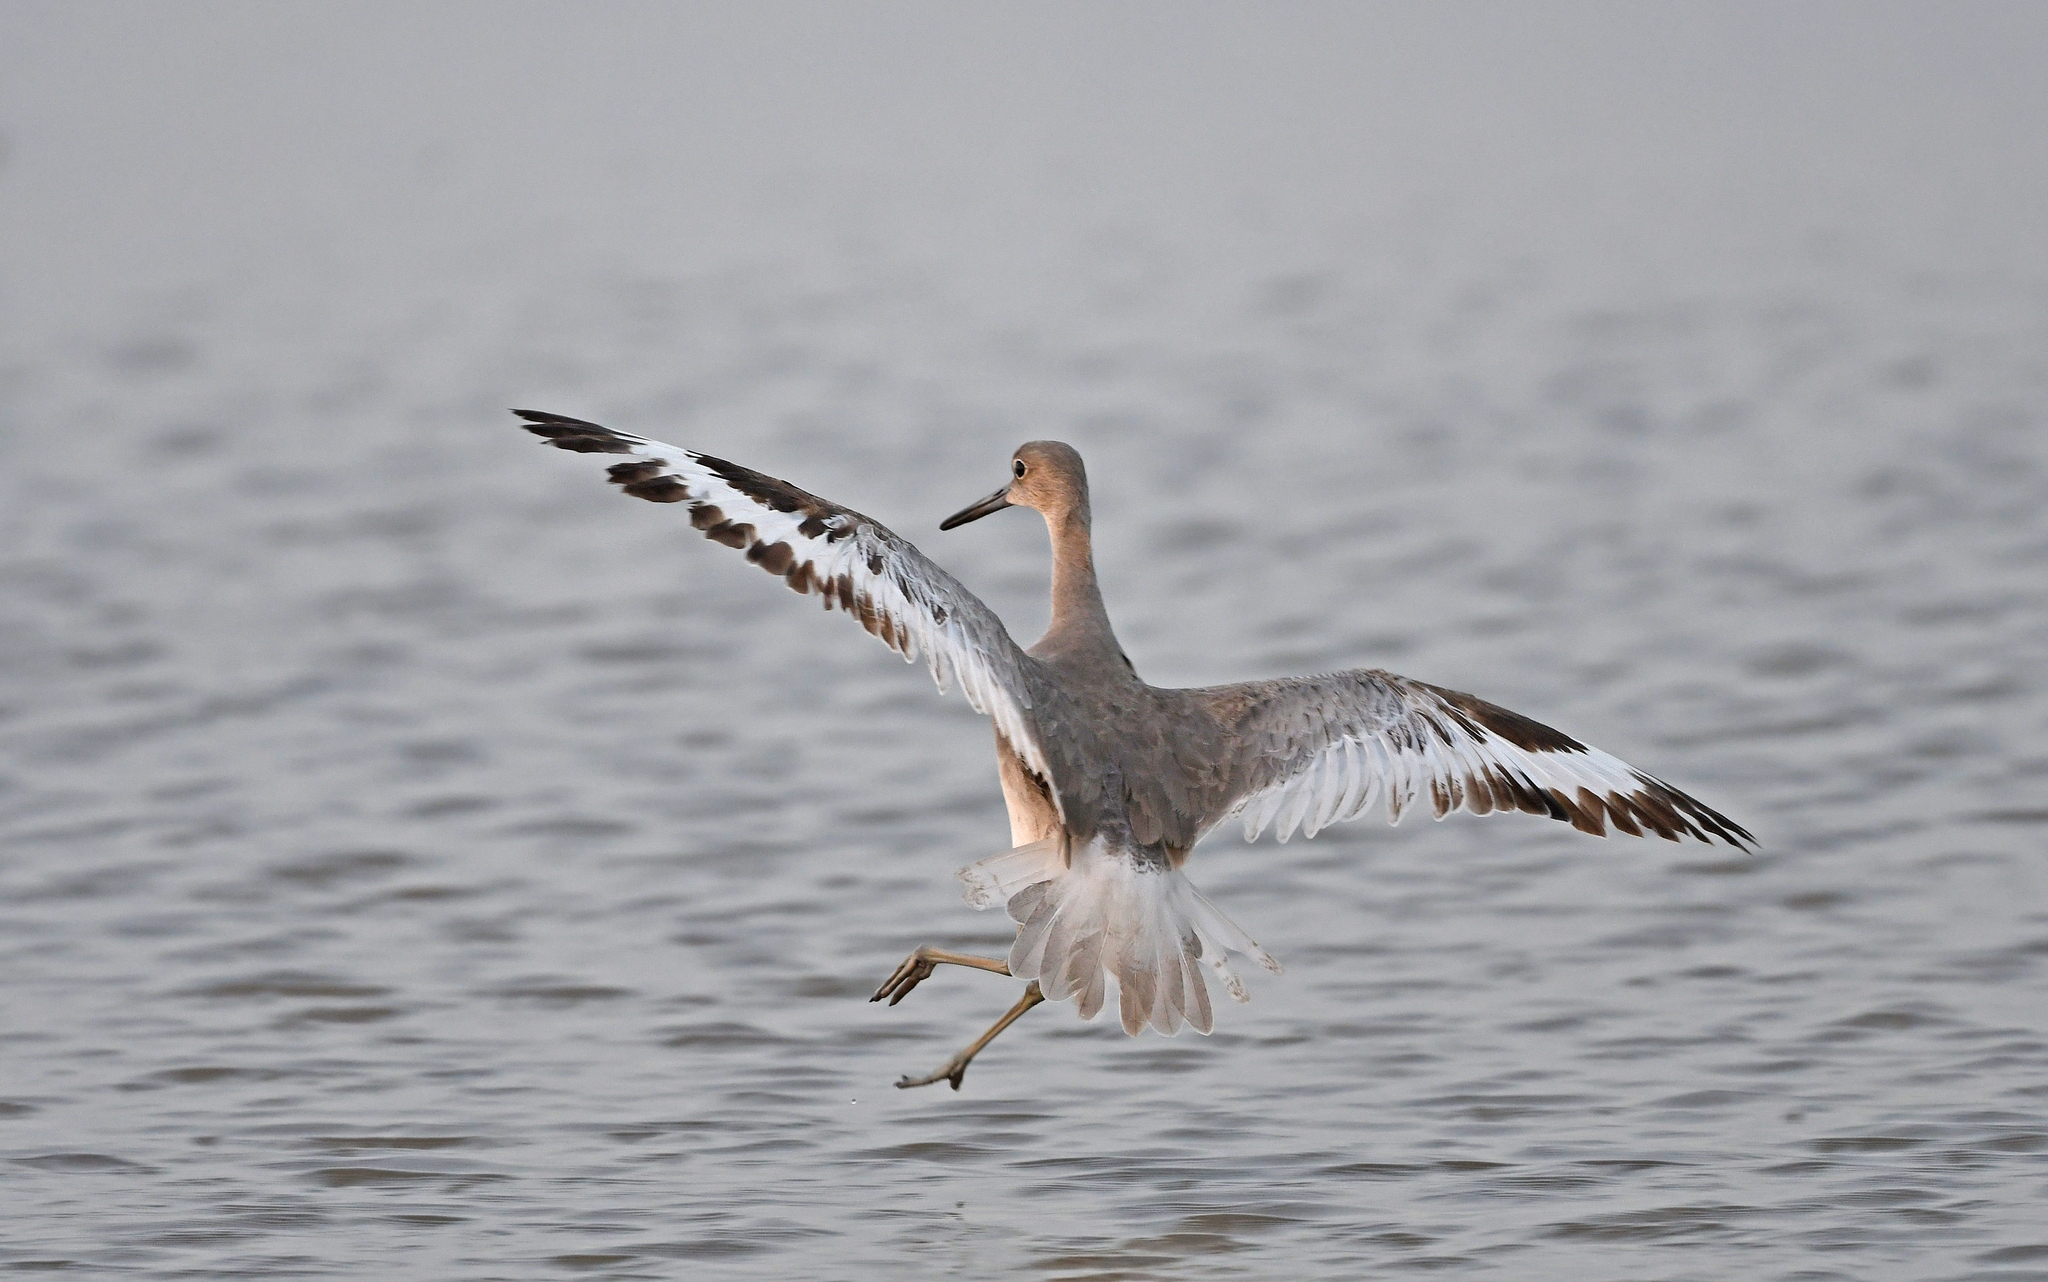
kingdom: Animalia
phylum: Chordata
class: Aves
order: Charadriiformes
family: Scolopacidae
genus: Tringa
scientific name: Tringa semipalmata
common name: Willet
